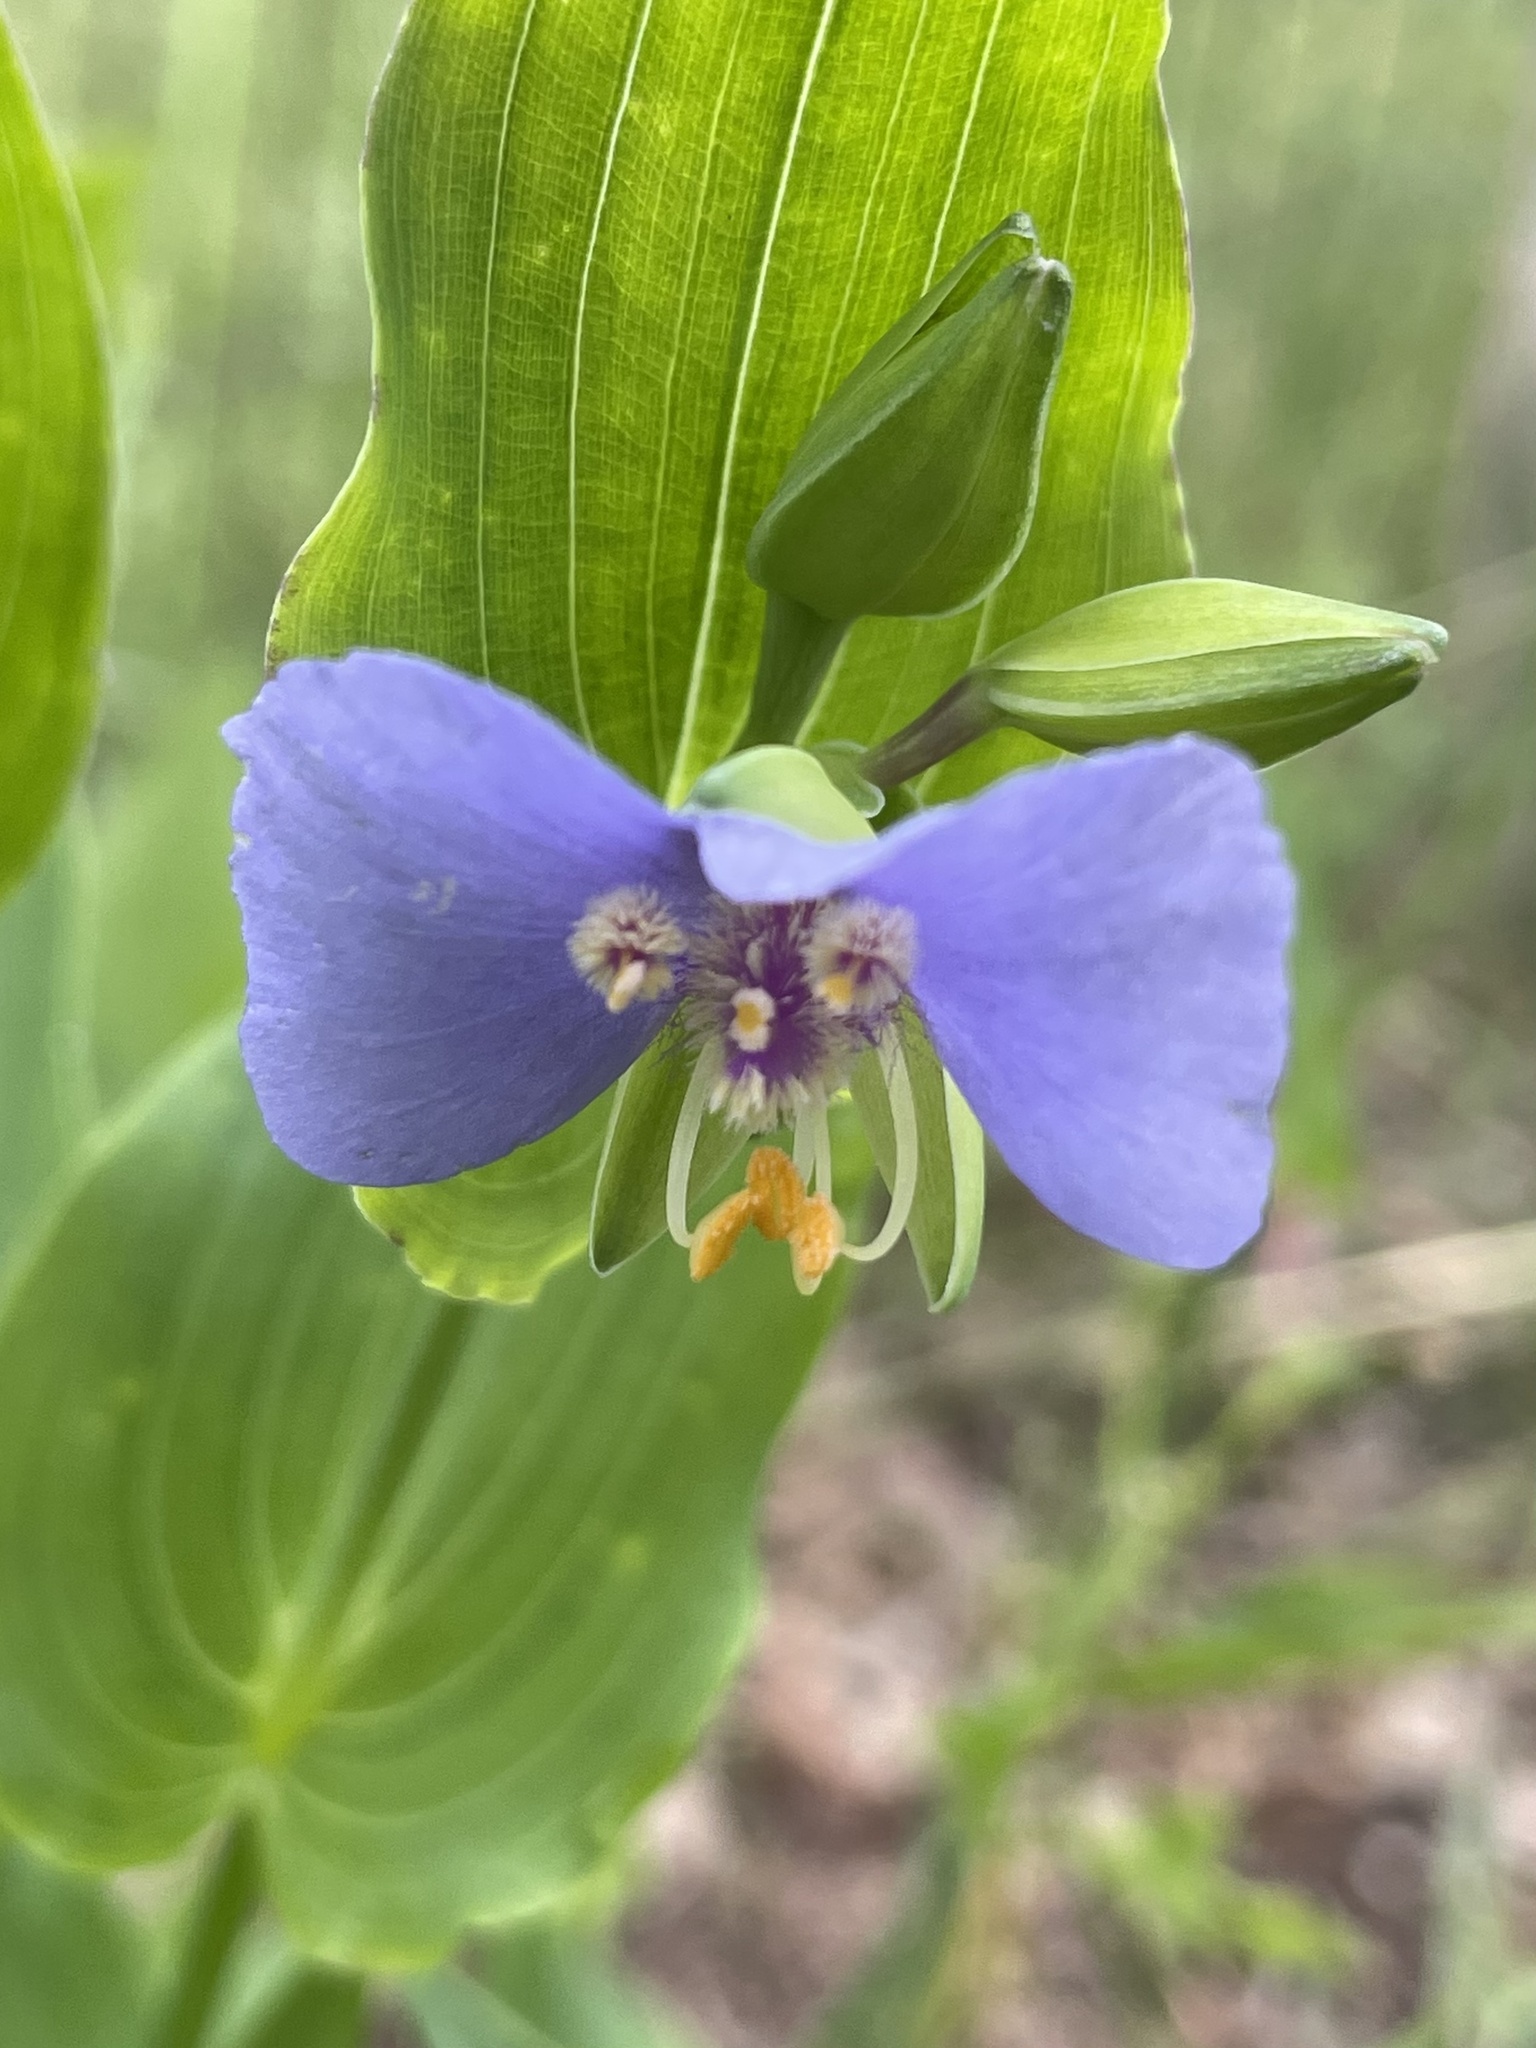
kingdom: Plantae
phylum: Tracheophyta
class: Liliopsida
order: Commelinales
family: Commelinaceae
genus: Tinantia
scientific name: Tinantia anomala
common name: False dayflower
